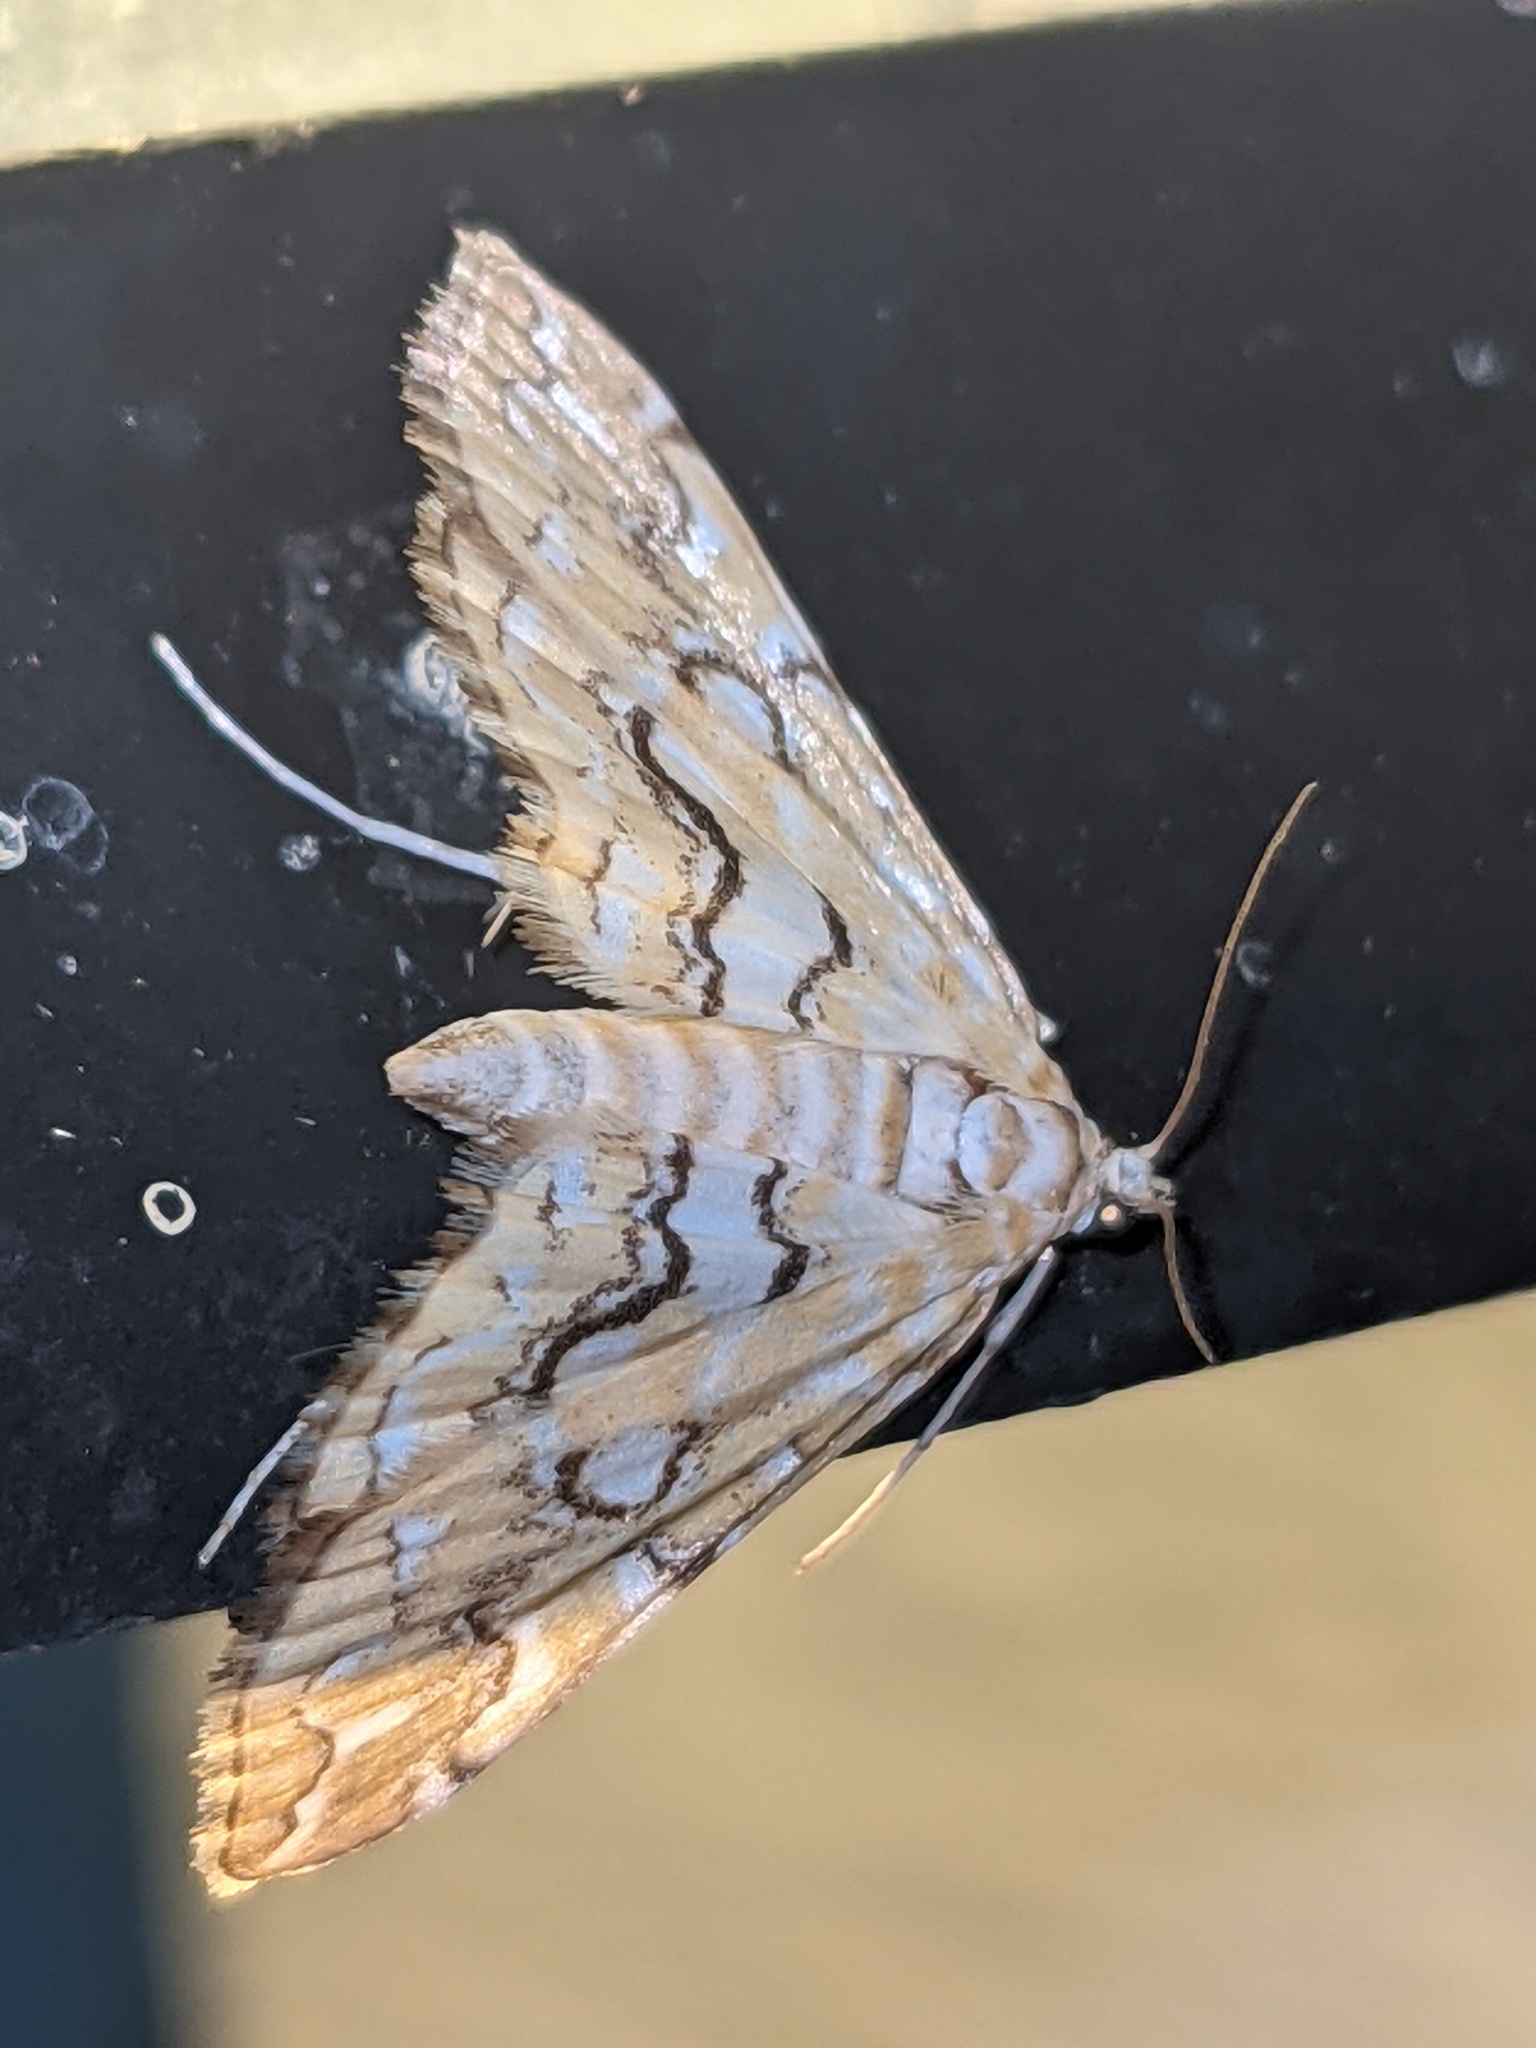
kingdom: Animalia
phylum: Arthropoda
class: Insecta
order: Lepidoptera
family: Crambidae
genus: Elophila
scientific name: Elophila icciusalis
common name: Pondside pyralid moth
